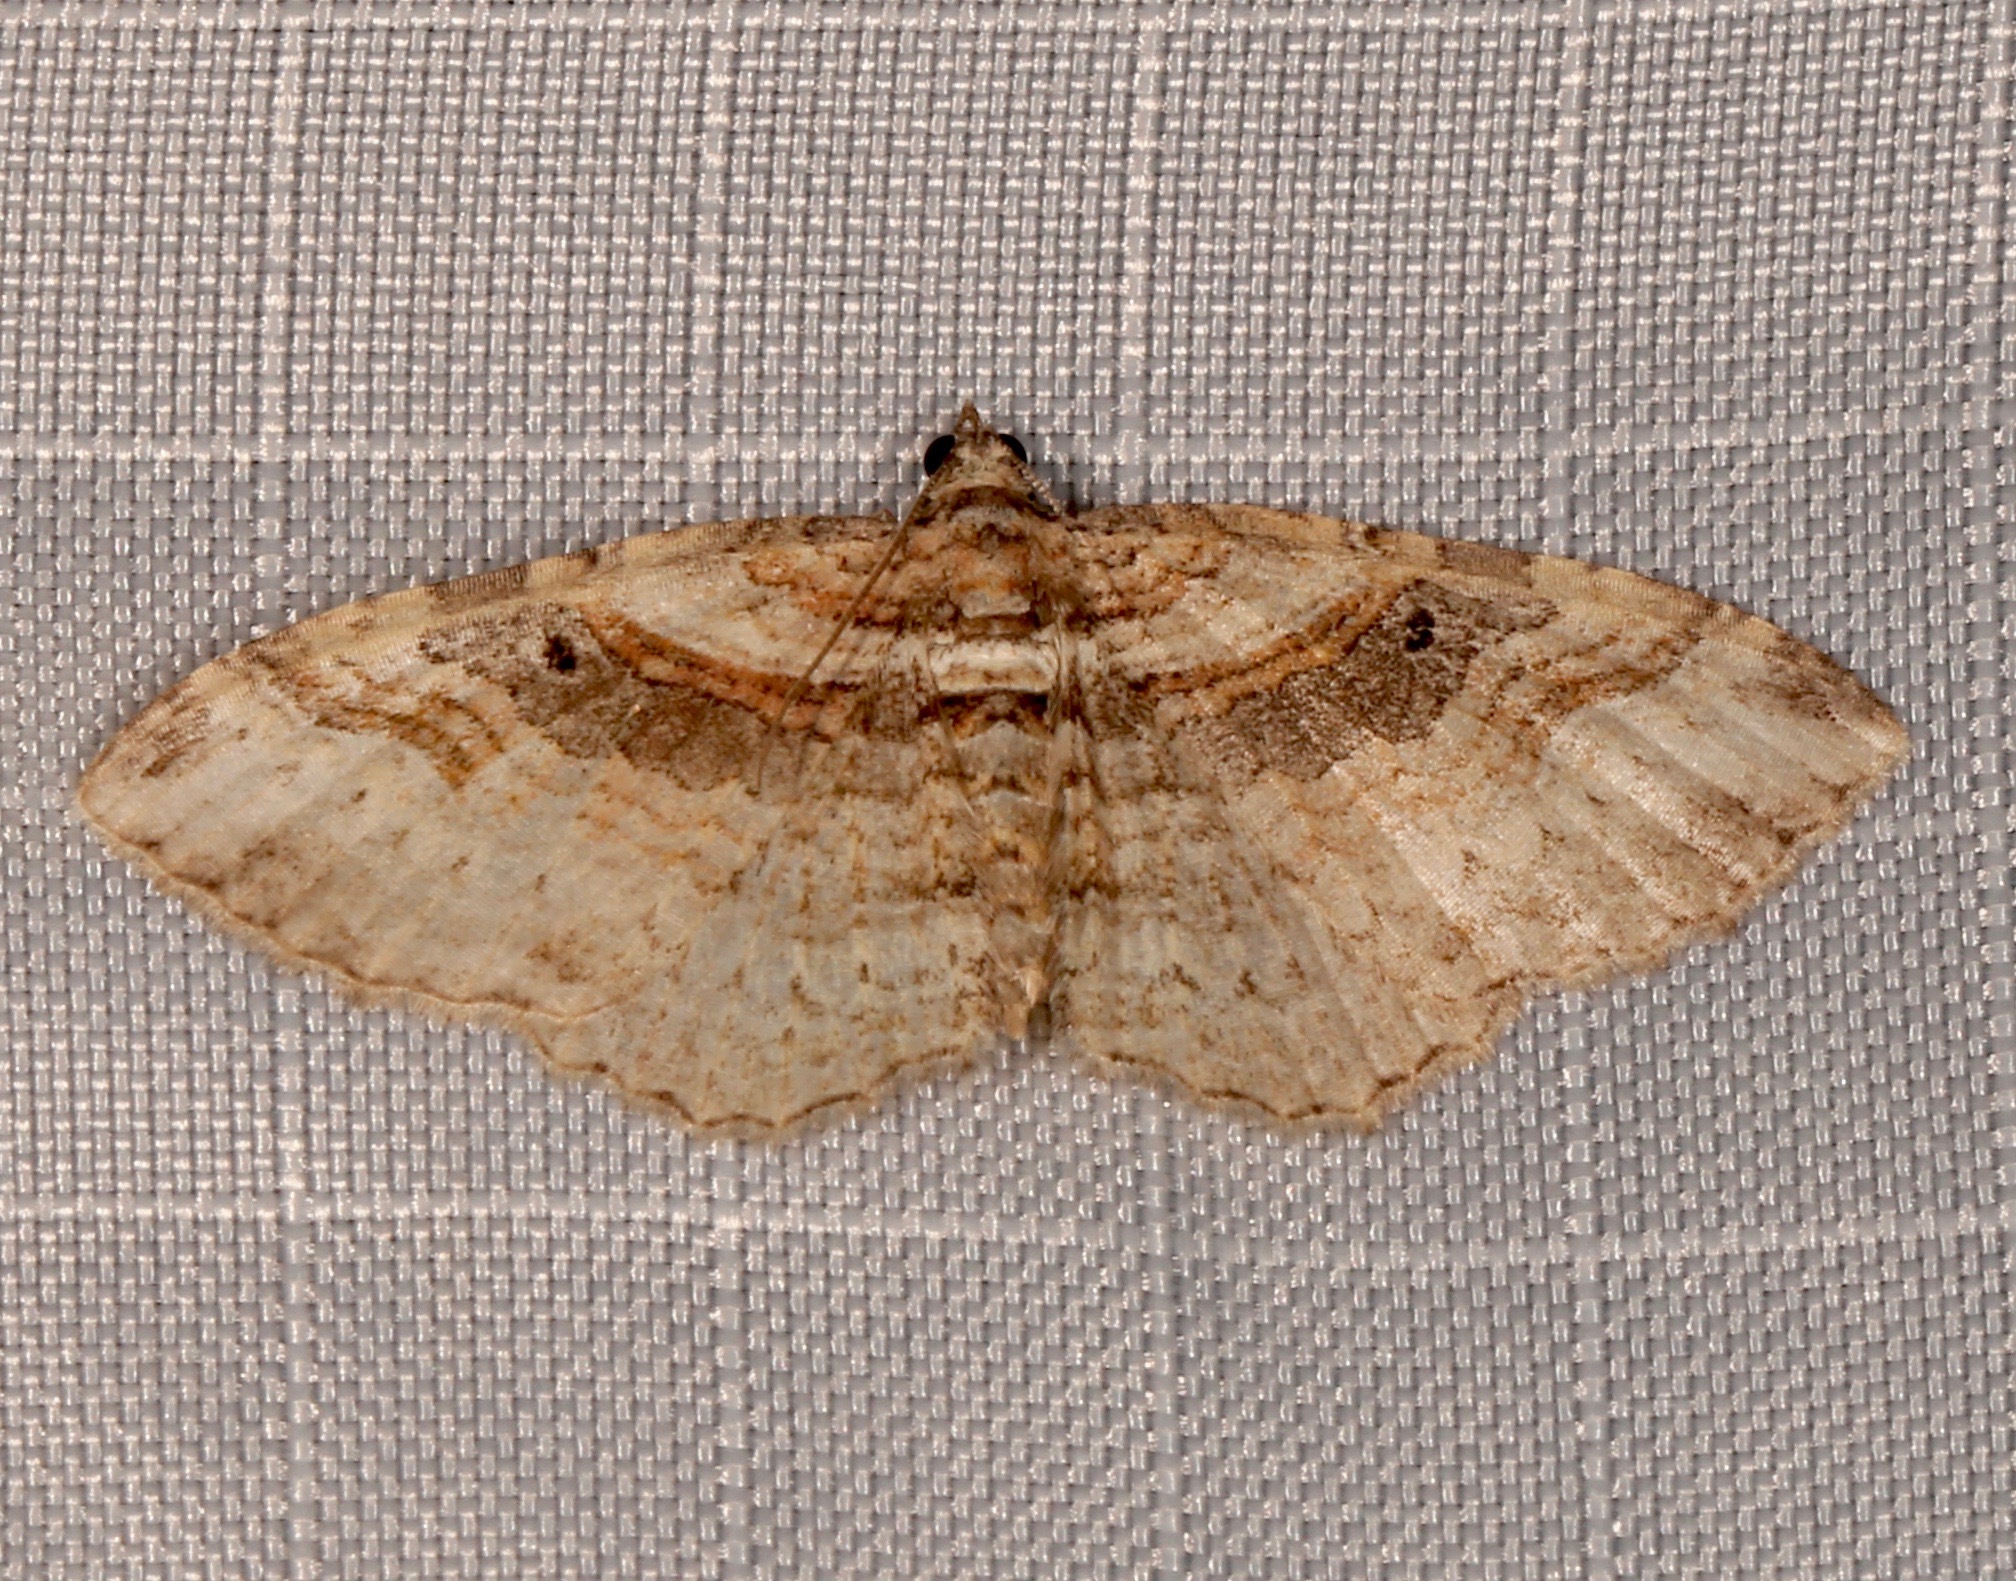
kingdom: Animalia
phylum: Arthropoda
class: Insecta
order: Lepidoptera
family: Geometridae
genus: Costaconvexa
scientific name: Costaconvexa centrostrigaria
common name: Bent-line carpet
